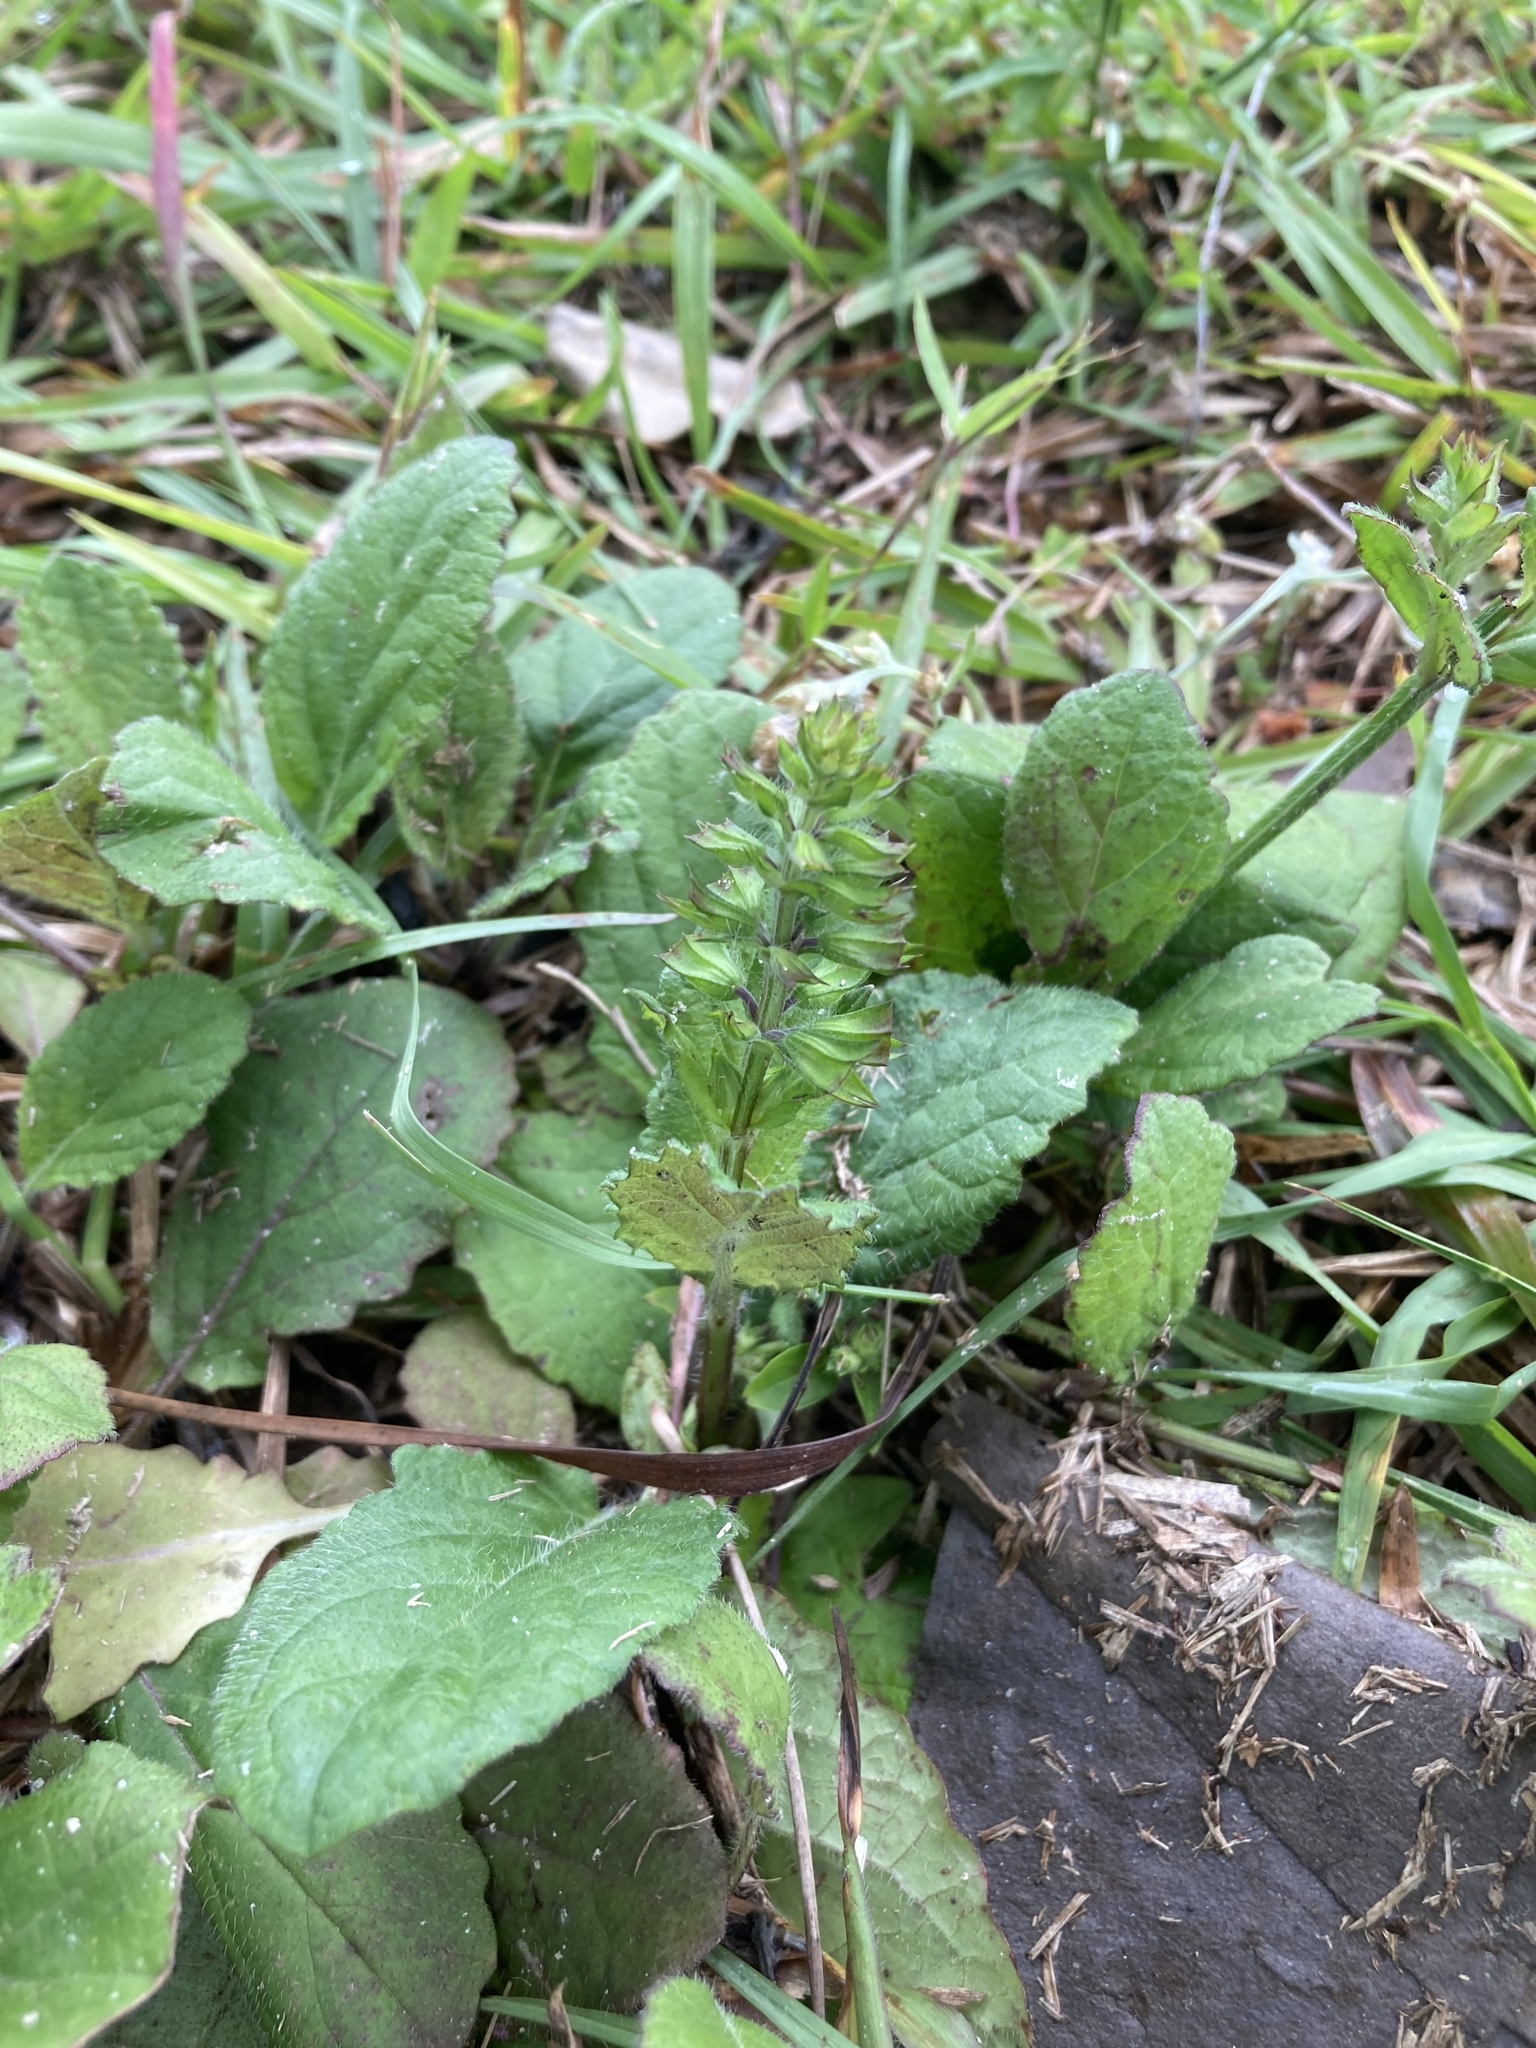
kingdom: Plantae
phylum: Tracheophyta
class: Magnoliopsida
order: Lamiales
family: Lamiaceae
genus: Salvia
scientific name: Salvia lyrata
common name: Cancerweed
